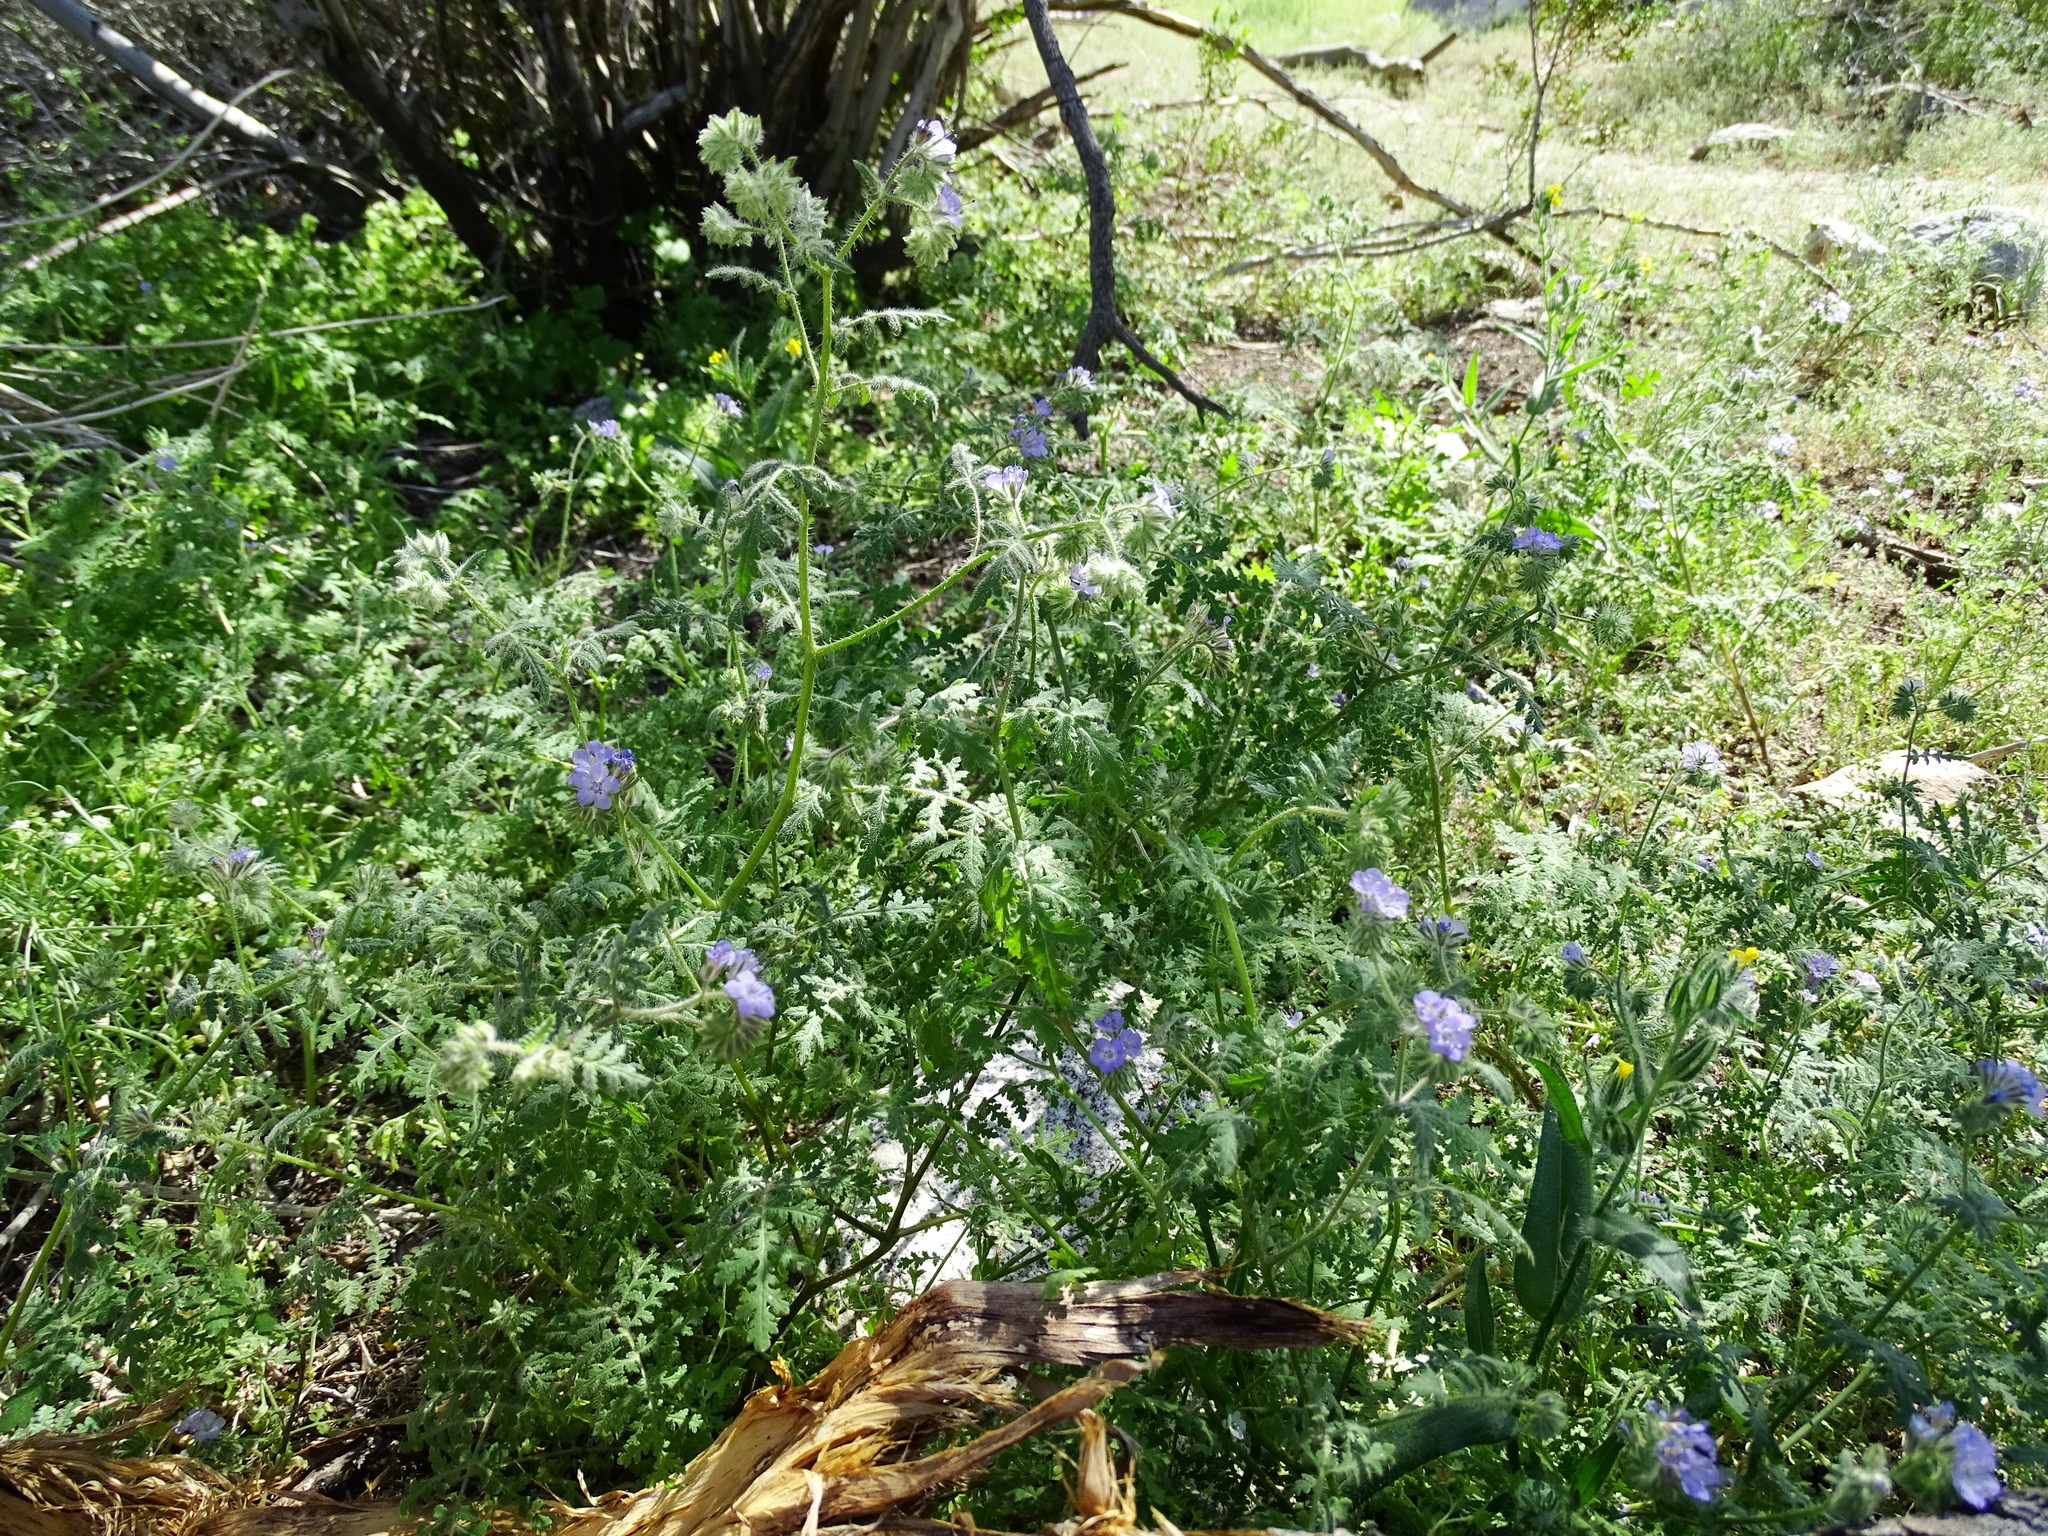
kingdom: Plantae
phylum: Tracheophyta
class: Magnoliopsida
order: Boraginales
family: Hydrophyllaceae
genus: Phacelia
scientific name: Phacelia distans
